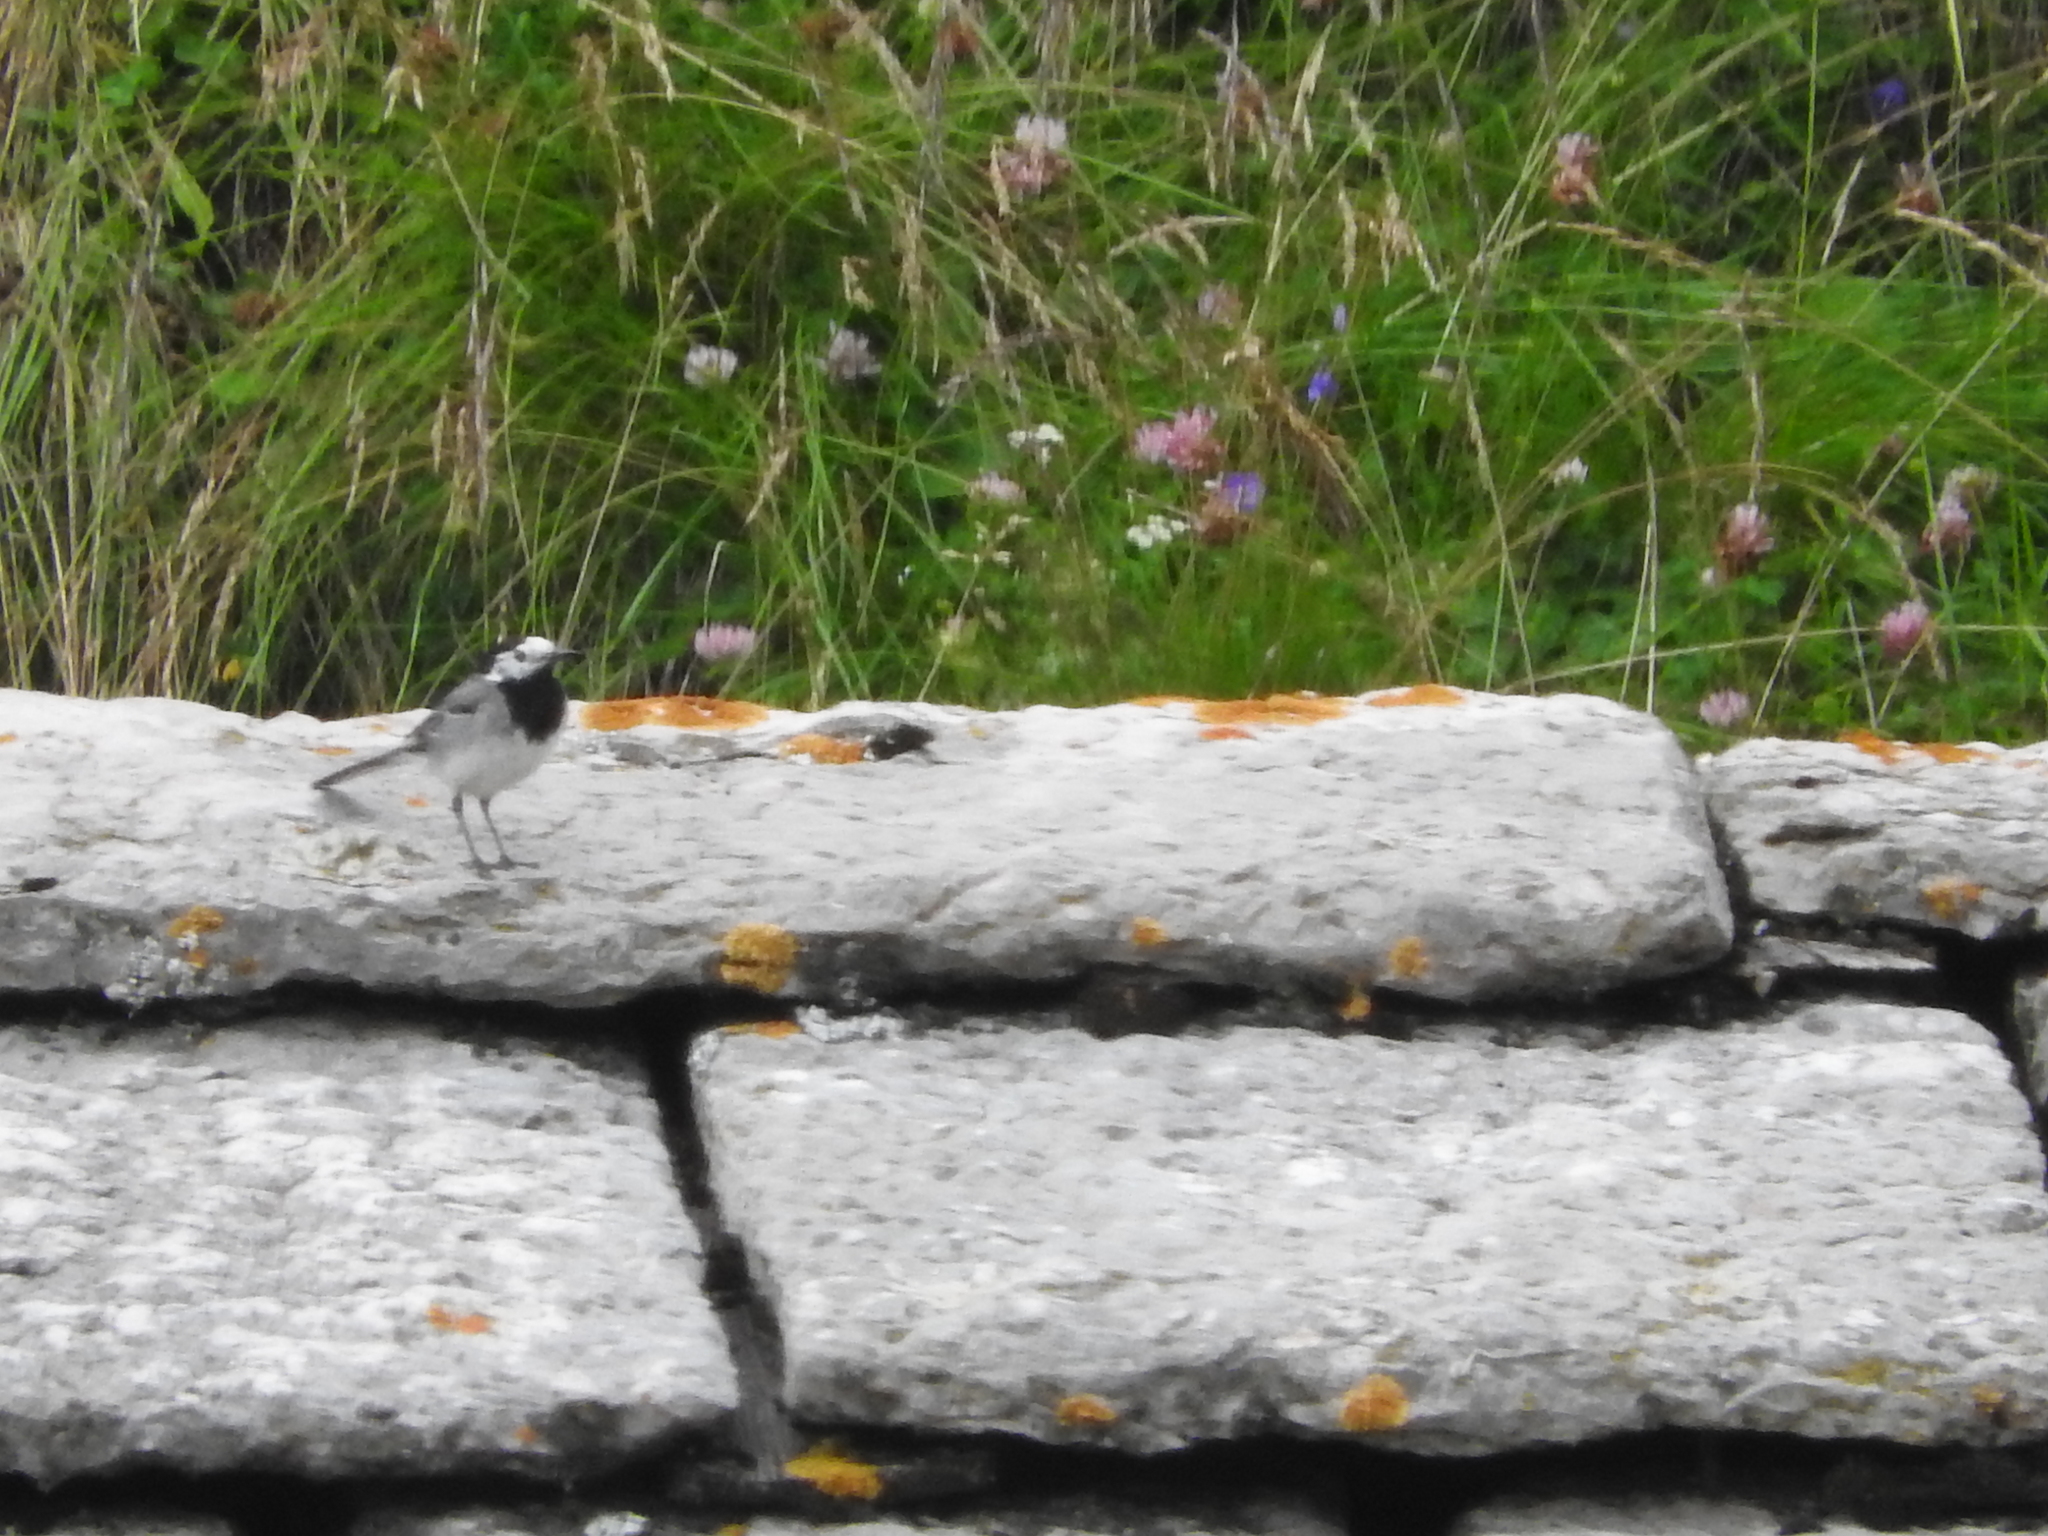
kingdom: Animalia
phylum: Chordata
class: Aves
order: Passeriformes
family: Motacillidae
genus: Motacilla
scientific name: Motacilla alba
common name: White wagtail
